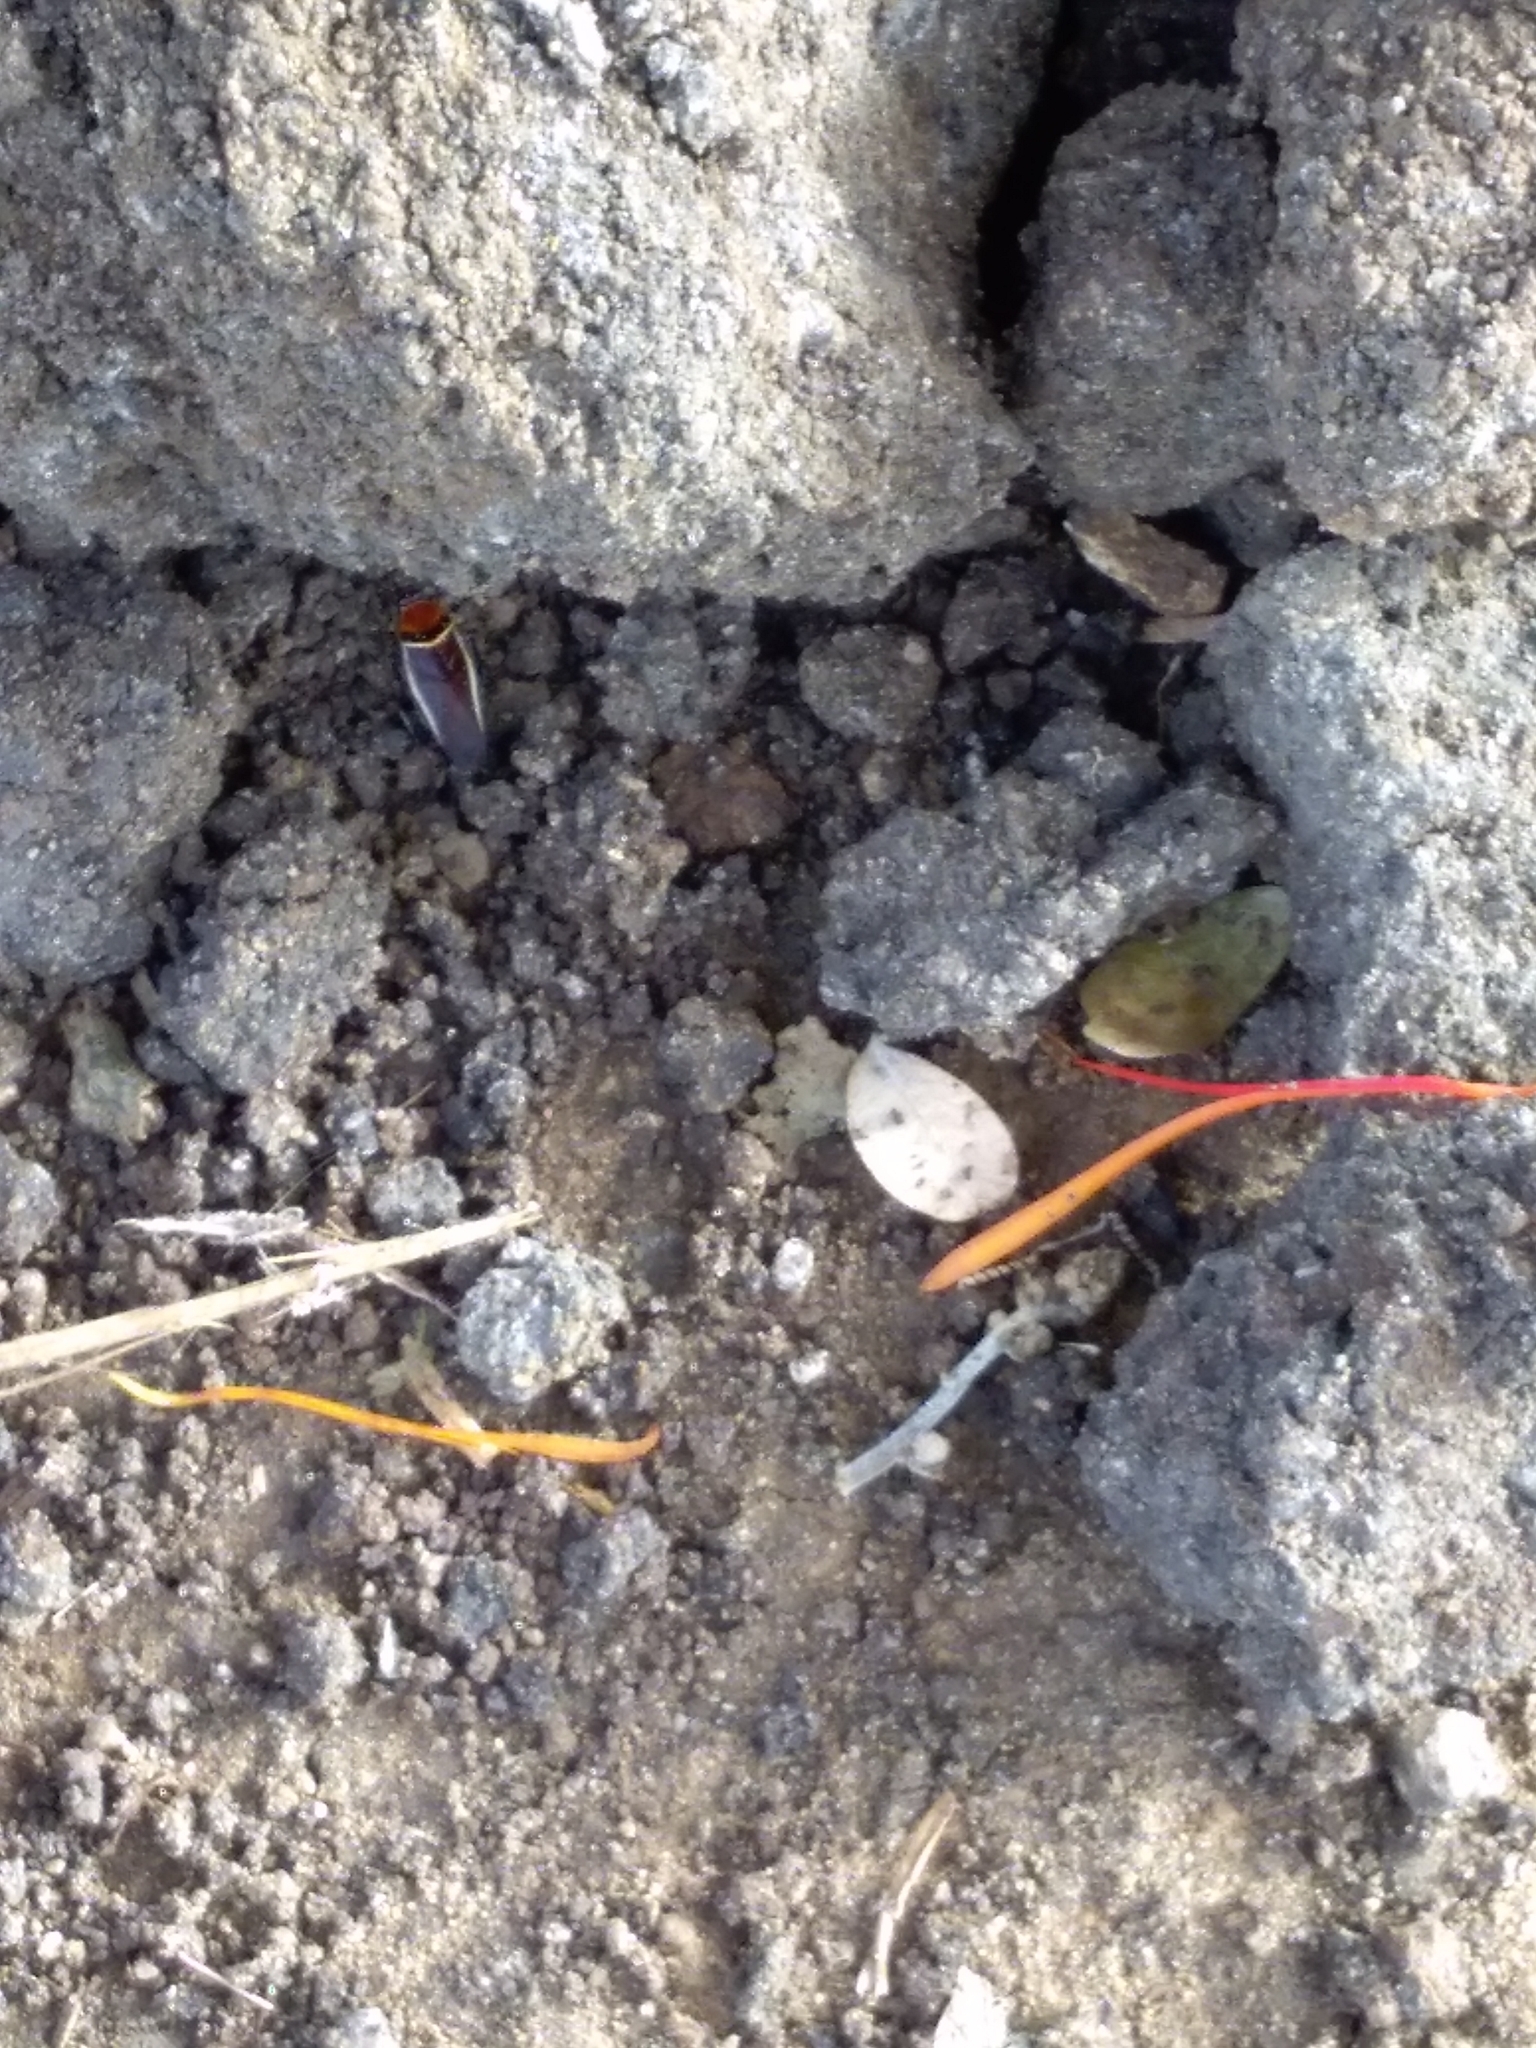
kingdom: Animalia
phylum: Arthropoda
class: Insecta
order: Blattodea
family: Ectobiidae
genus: Pseudomops
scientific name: Pseudomops interceptus
